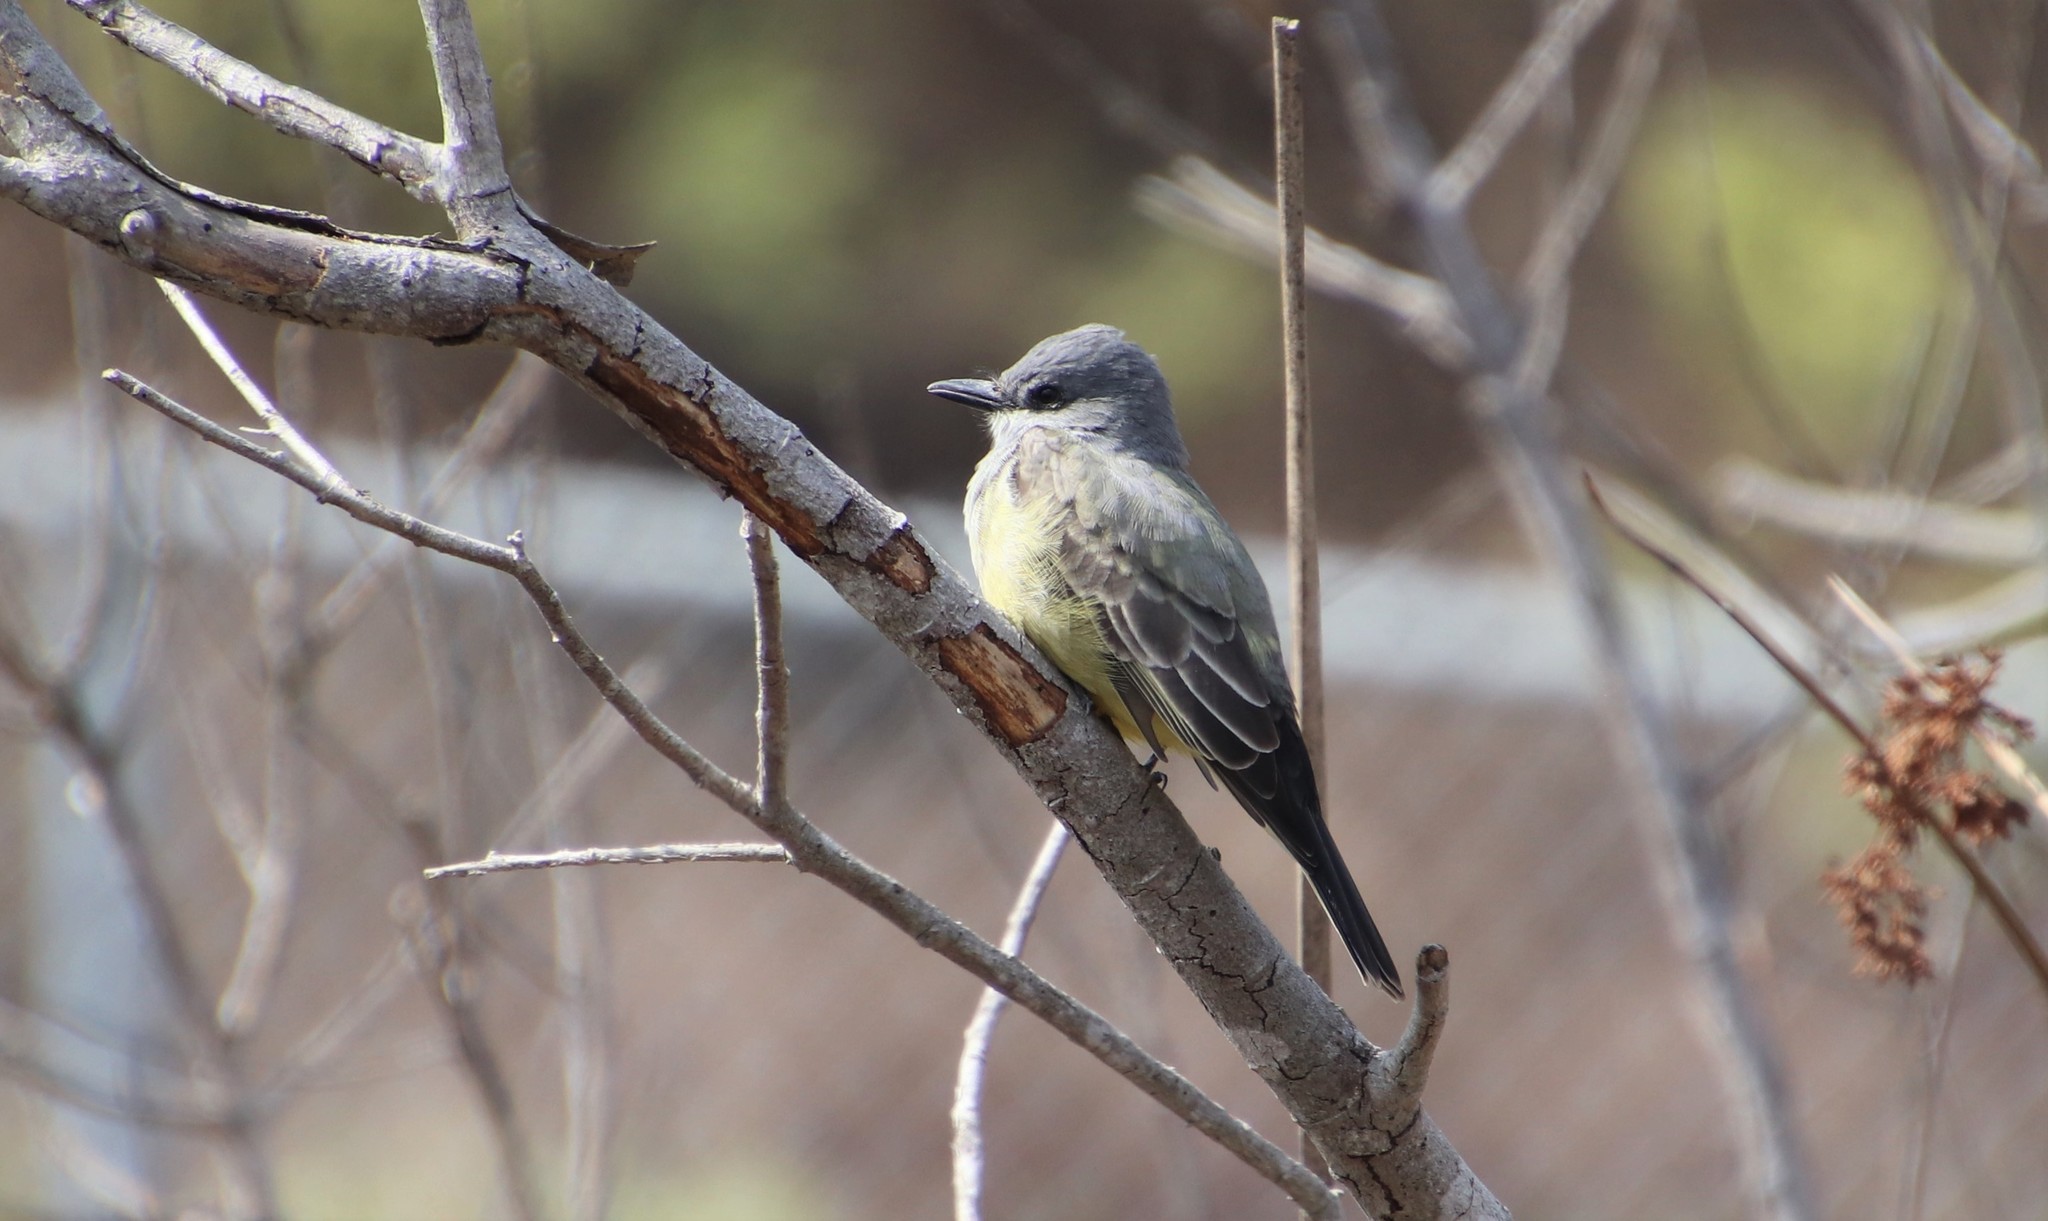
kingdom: Animalia
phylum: Chordata
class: Aves
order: Passeriformes
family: Tyrannidae
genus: Tyrannus
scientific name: Tyrannus vociferans
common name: Cassin's kingbird
